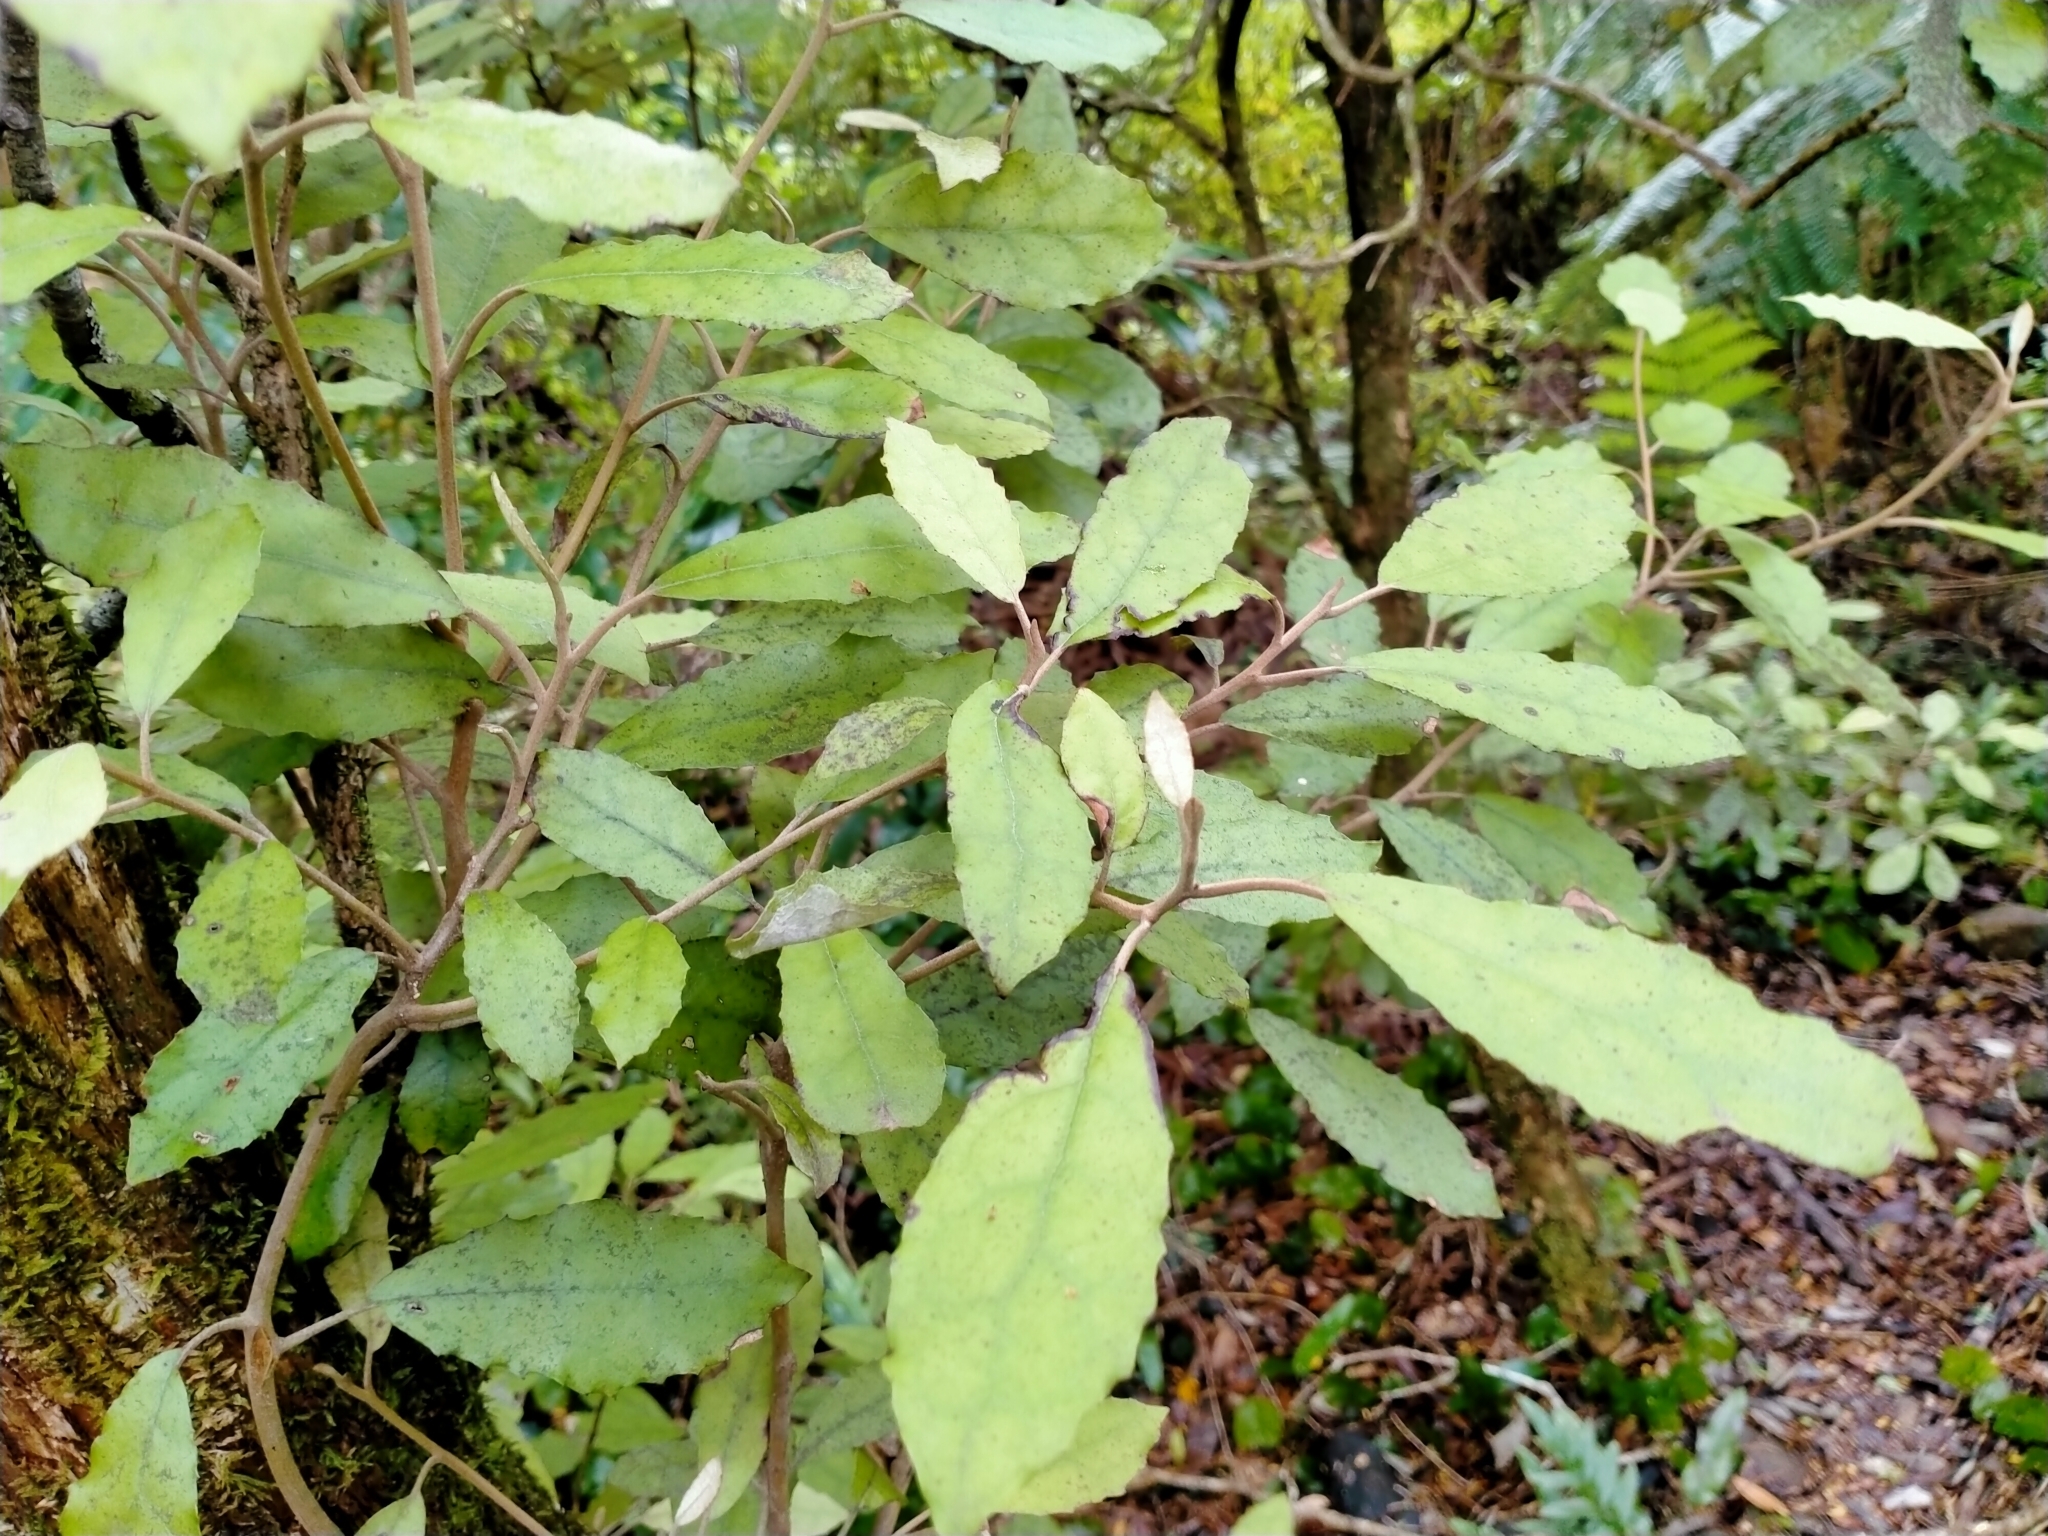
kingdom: Plantae
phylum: Tracheophyta
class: Magnoliopsida
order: Asterales
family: Asteraceae
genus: Olearia
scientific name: Olearia rani
